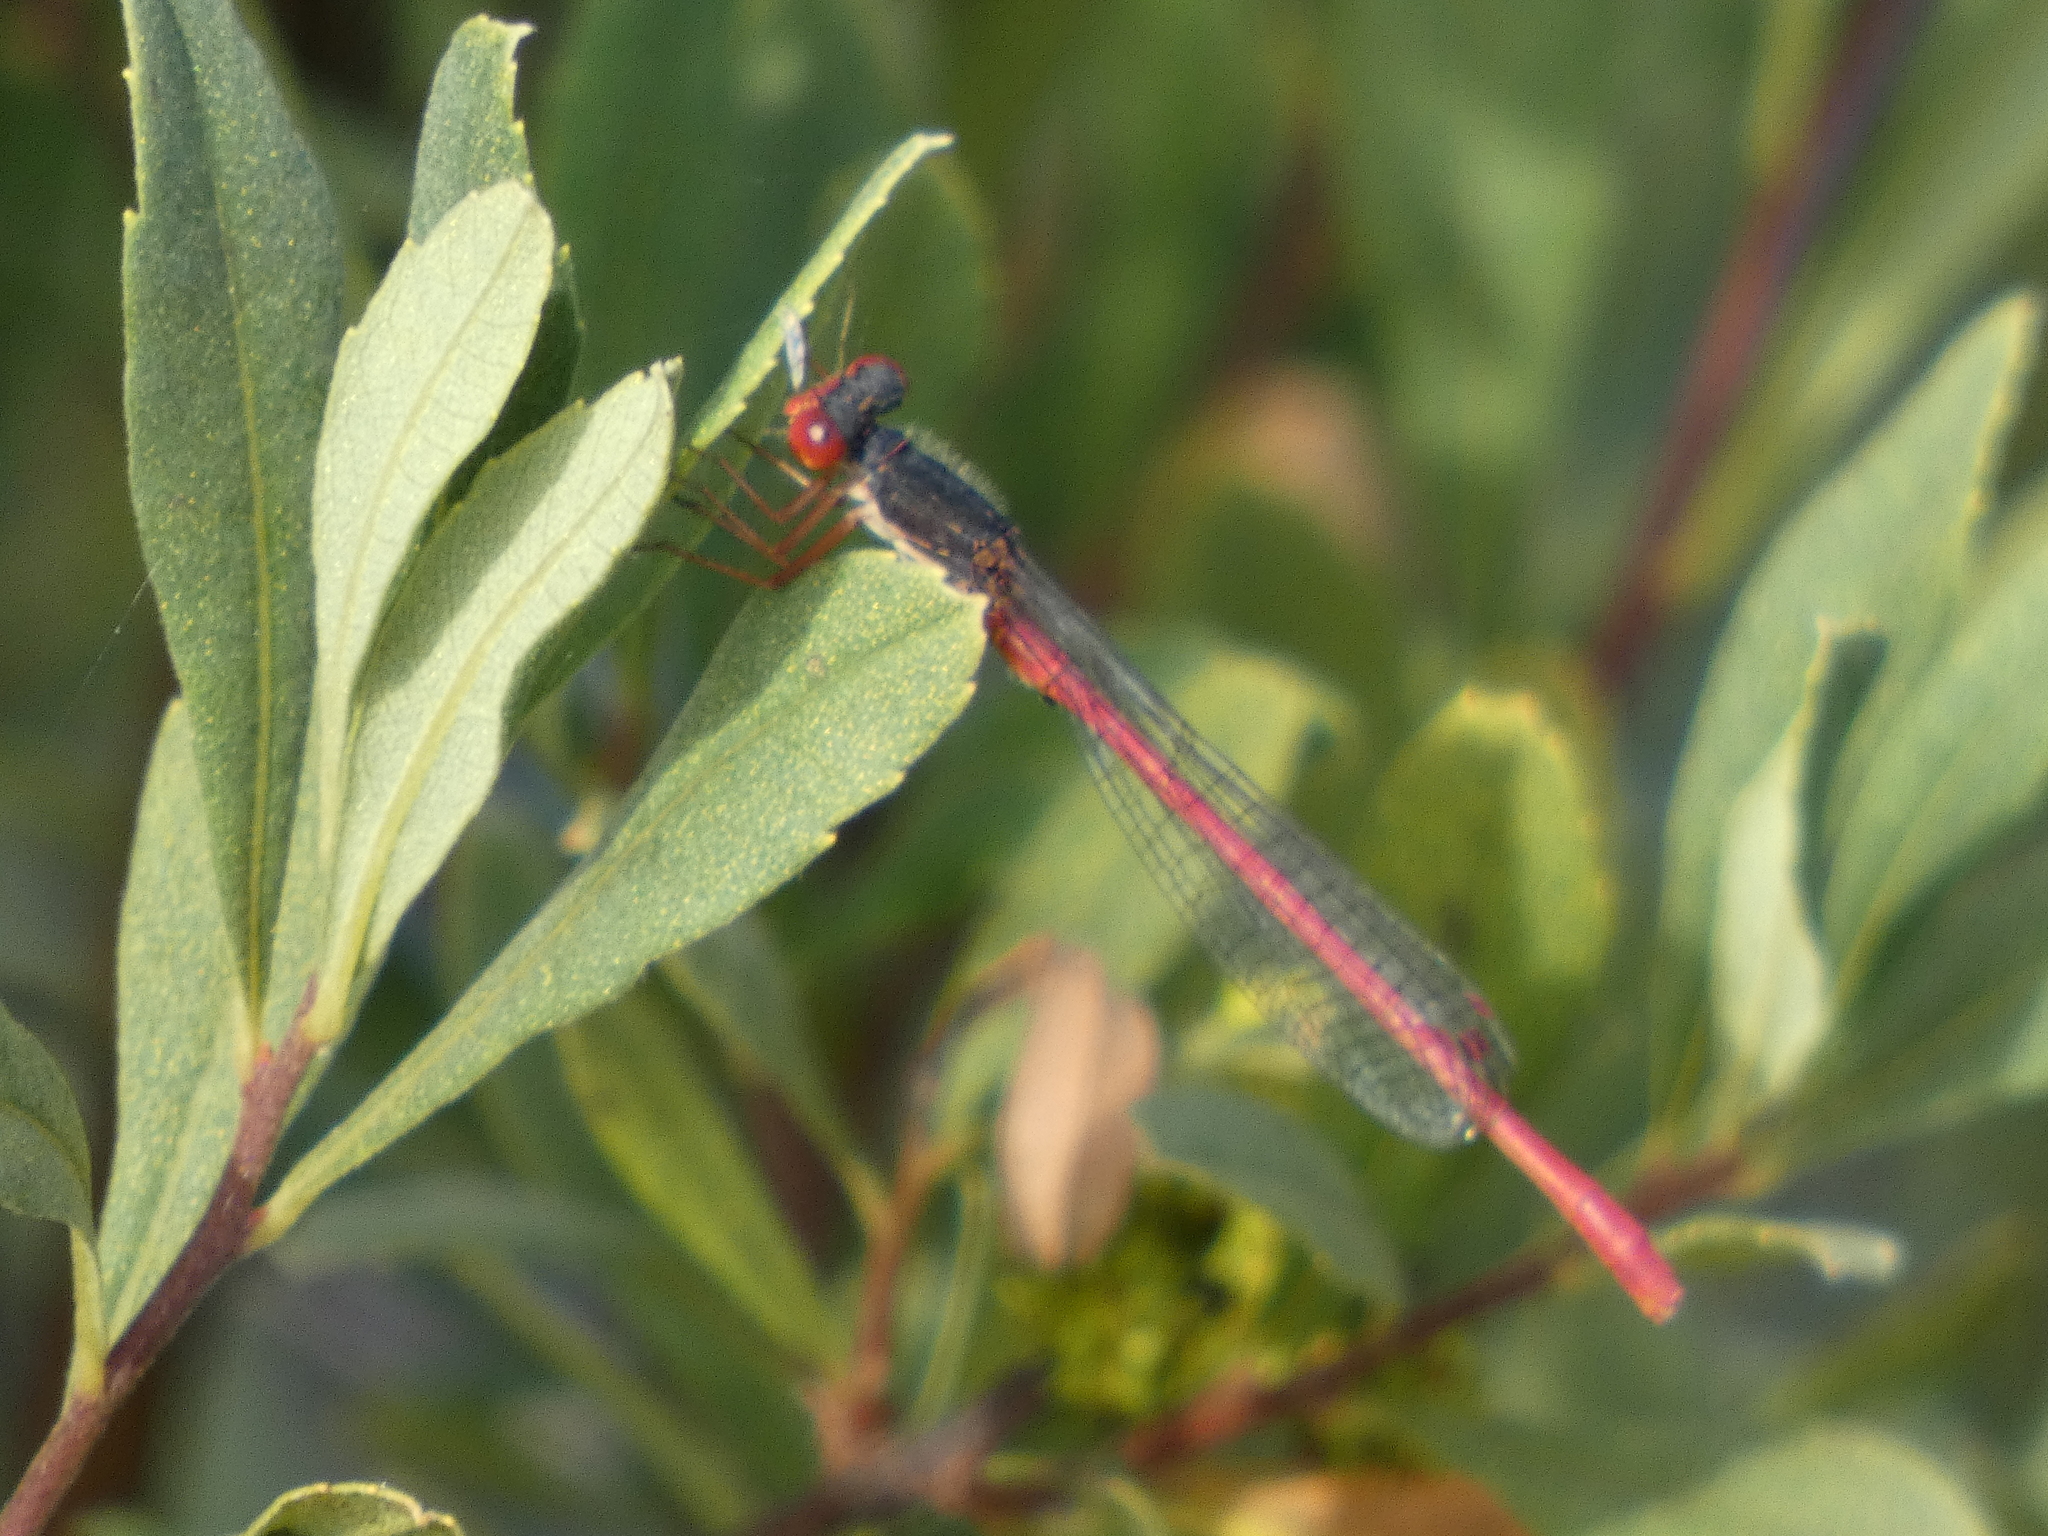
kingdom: Animalia
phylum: Arthropoda
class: Insecta
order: Odonata
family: Coenagrionidae
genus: Ceriagrion
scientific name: Ceriagrion tenellum
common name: Small red damselfly
